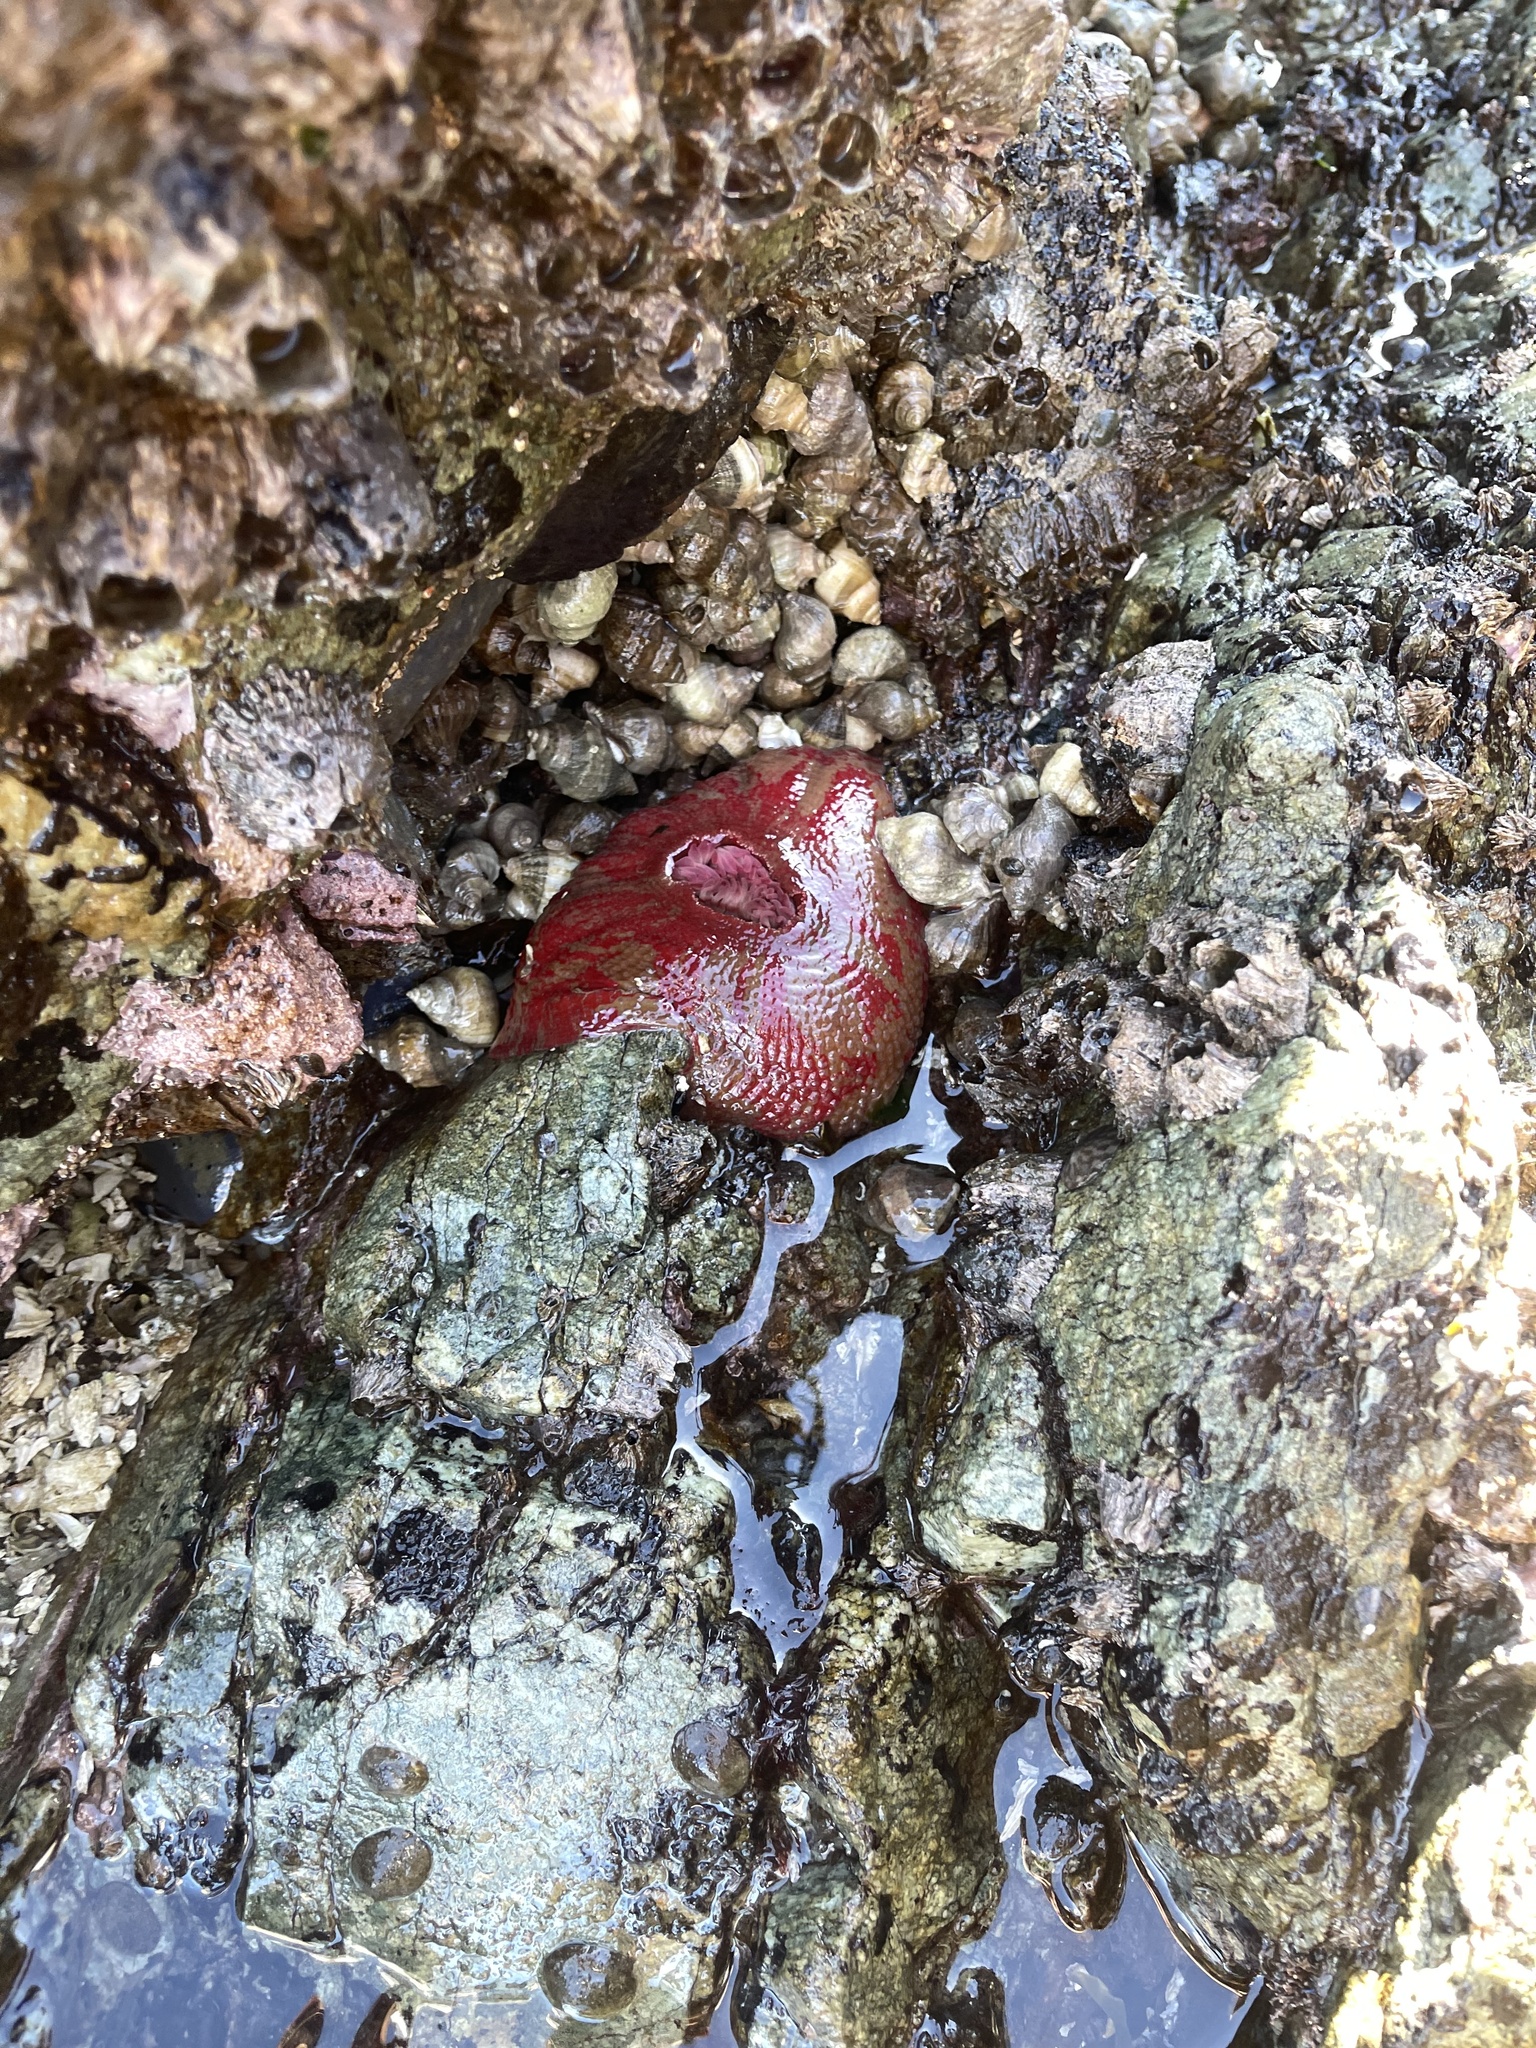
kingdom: Animalia
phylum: Cnidaria
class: Anthozoa
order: Actiniaria
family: Actiniidae
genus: Urticina
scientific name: Urticina grebelnyi
